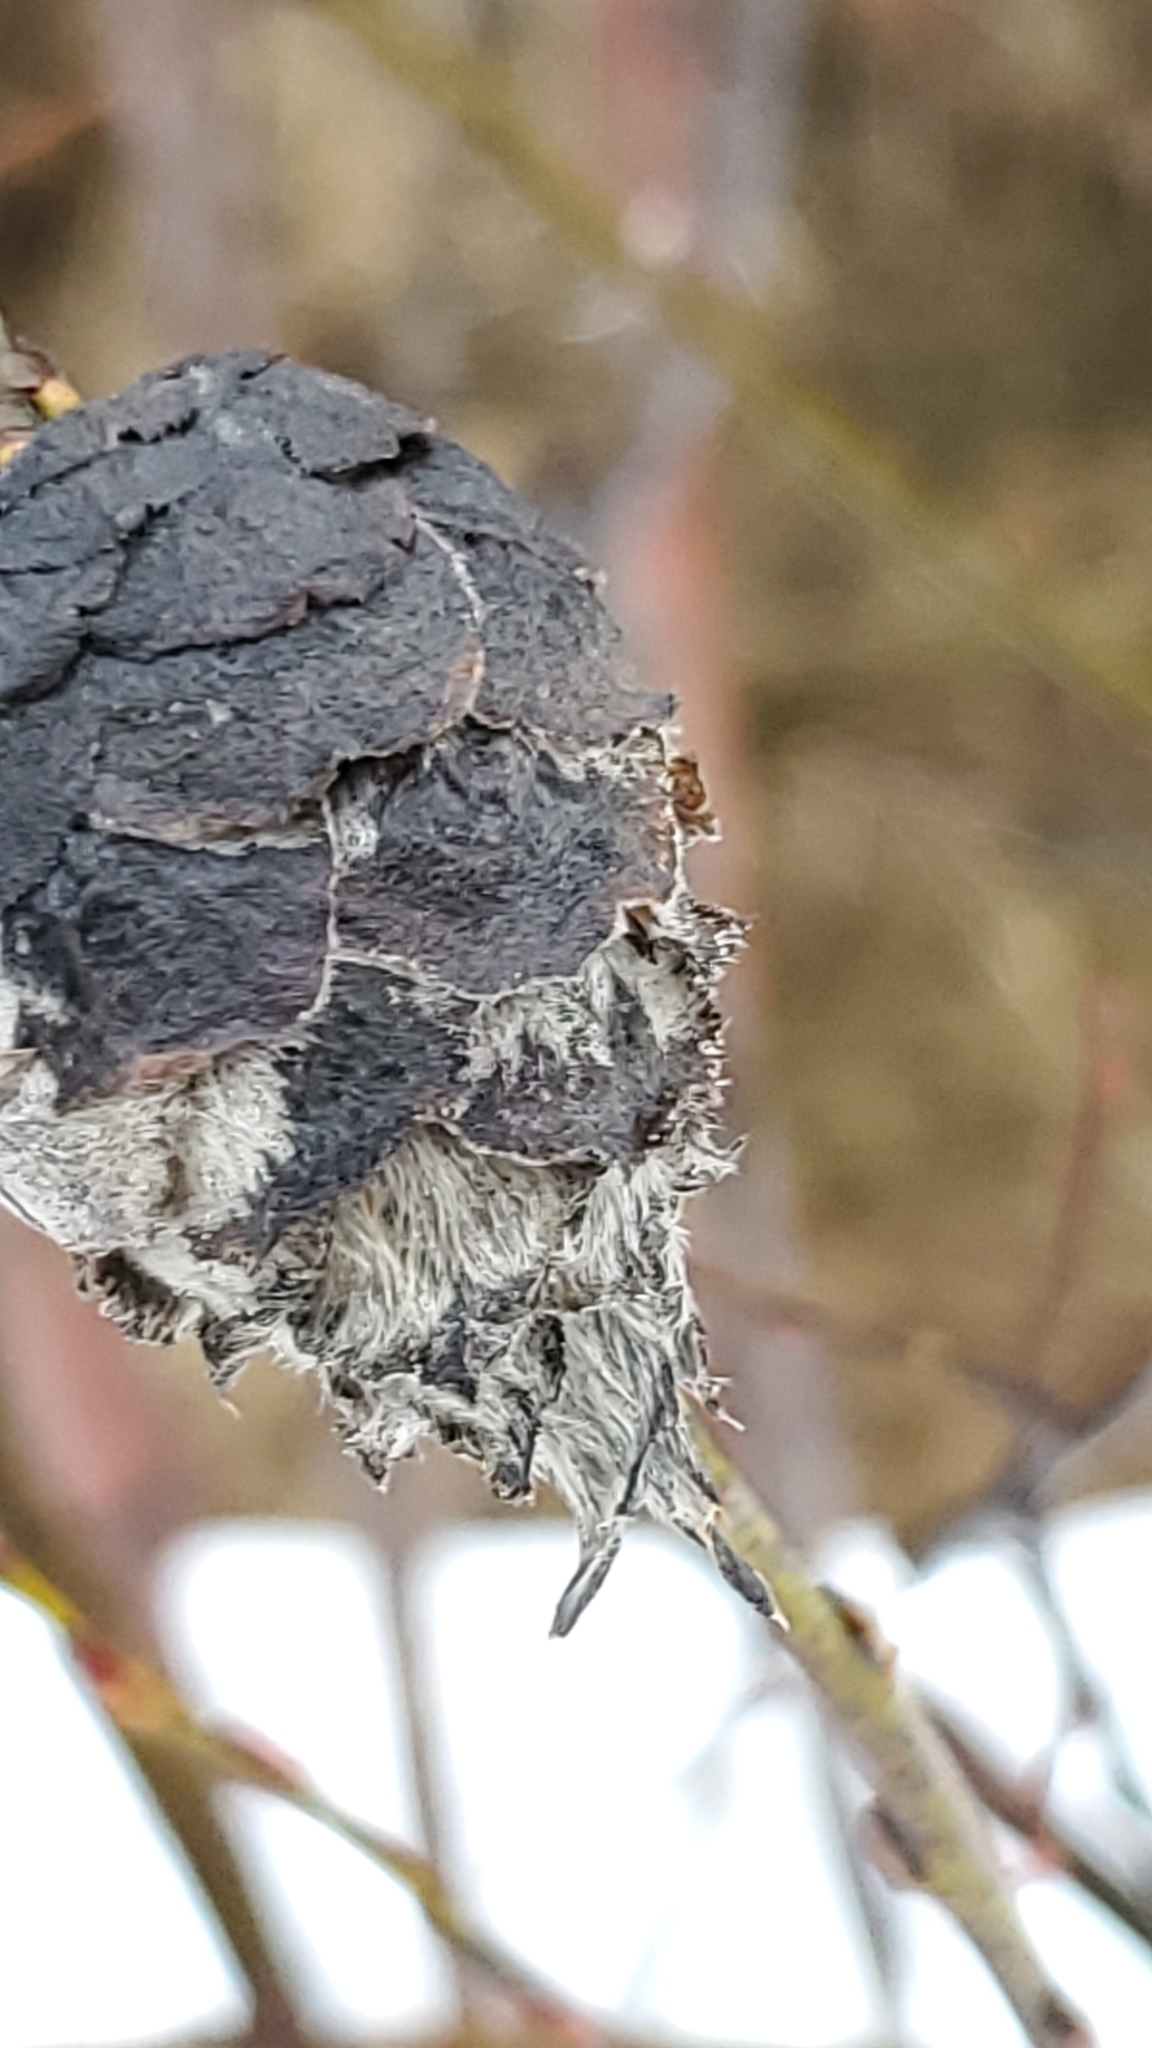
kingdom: Animalia
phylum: Arthropoda
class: Insecta
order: Diptera
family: Cecidomyiidae
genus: Rabdophaga
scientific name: Rabdophaga strobiloides
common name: Willow pinecone gall midge
